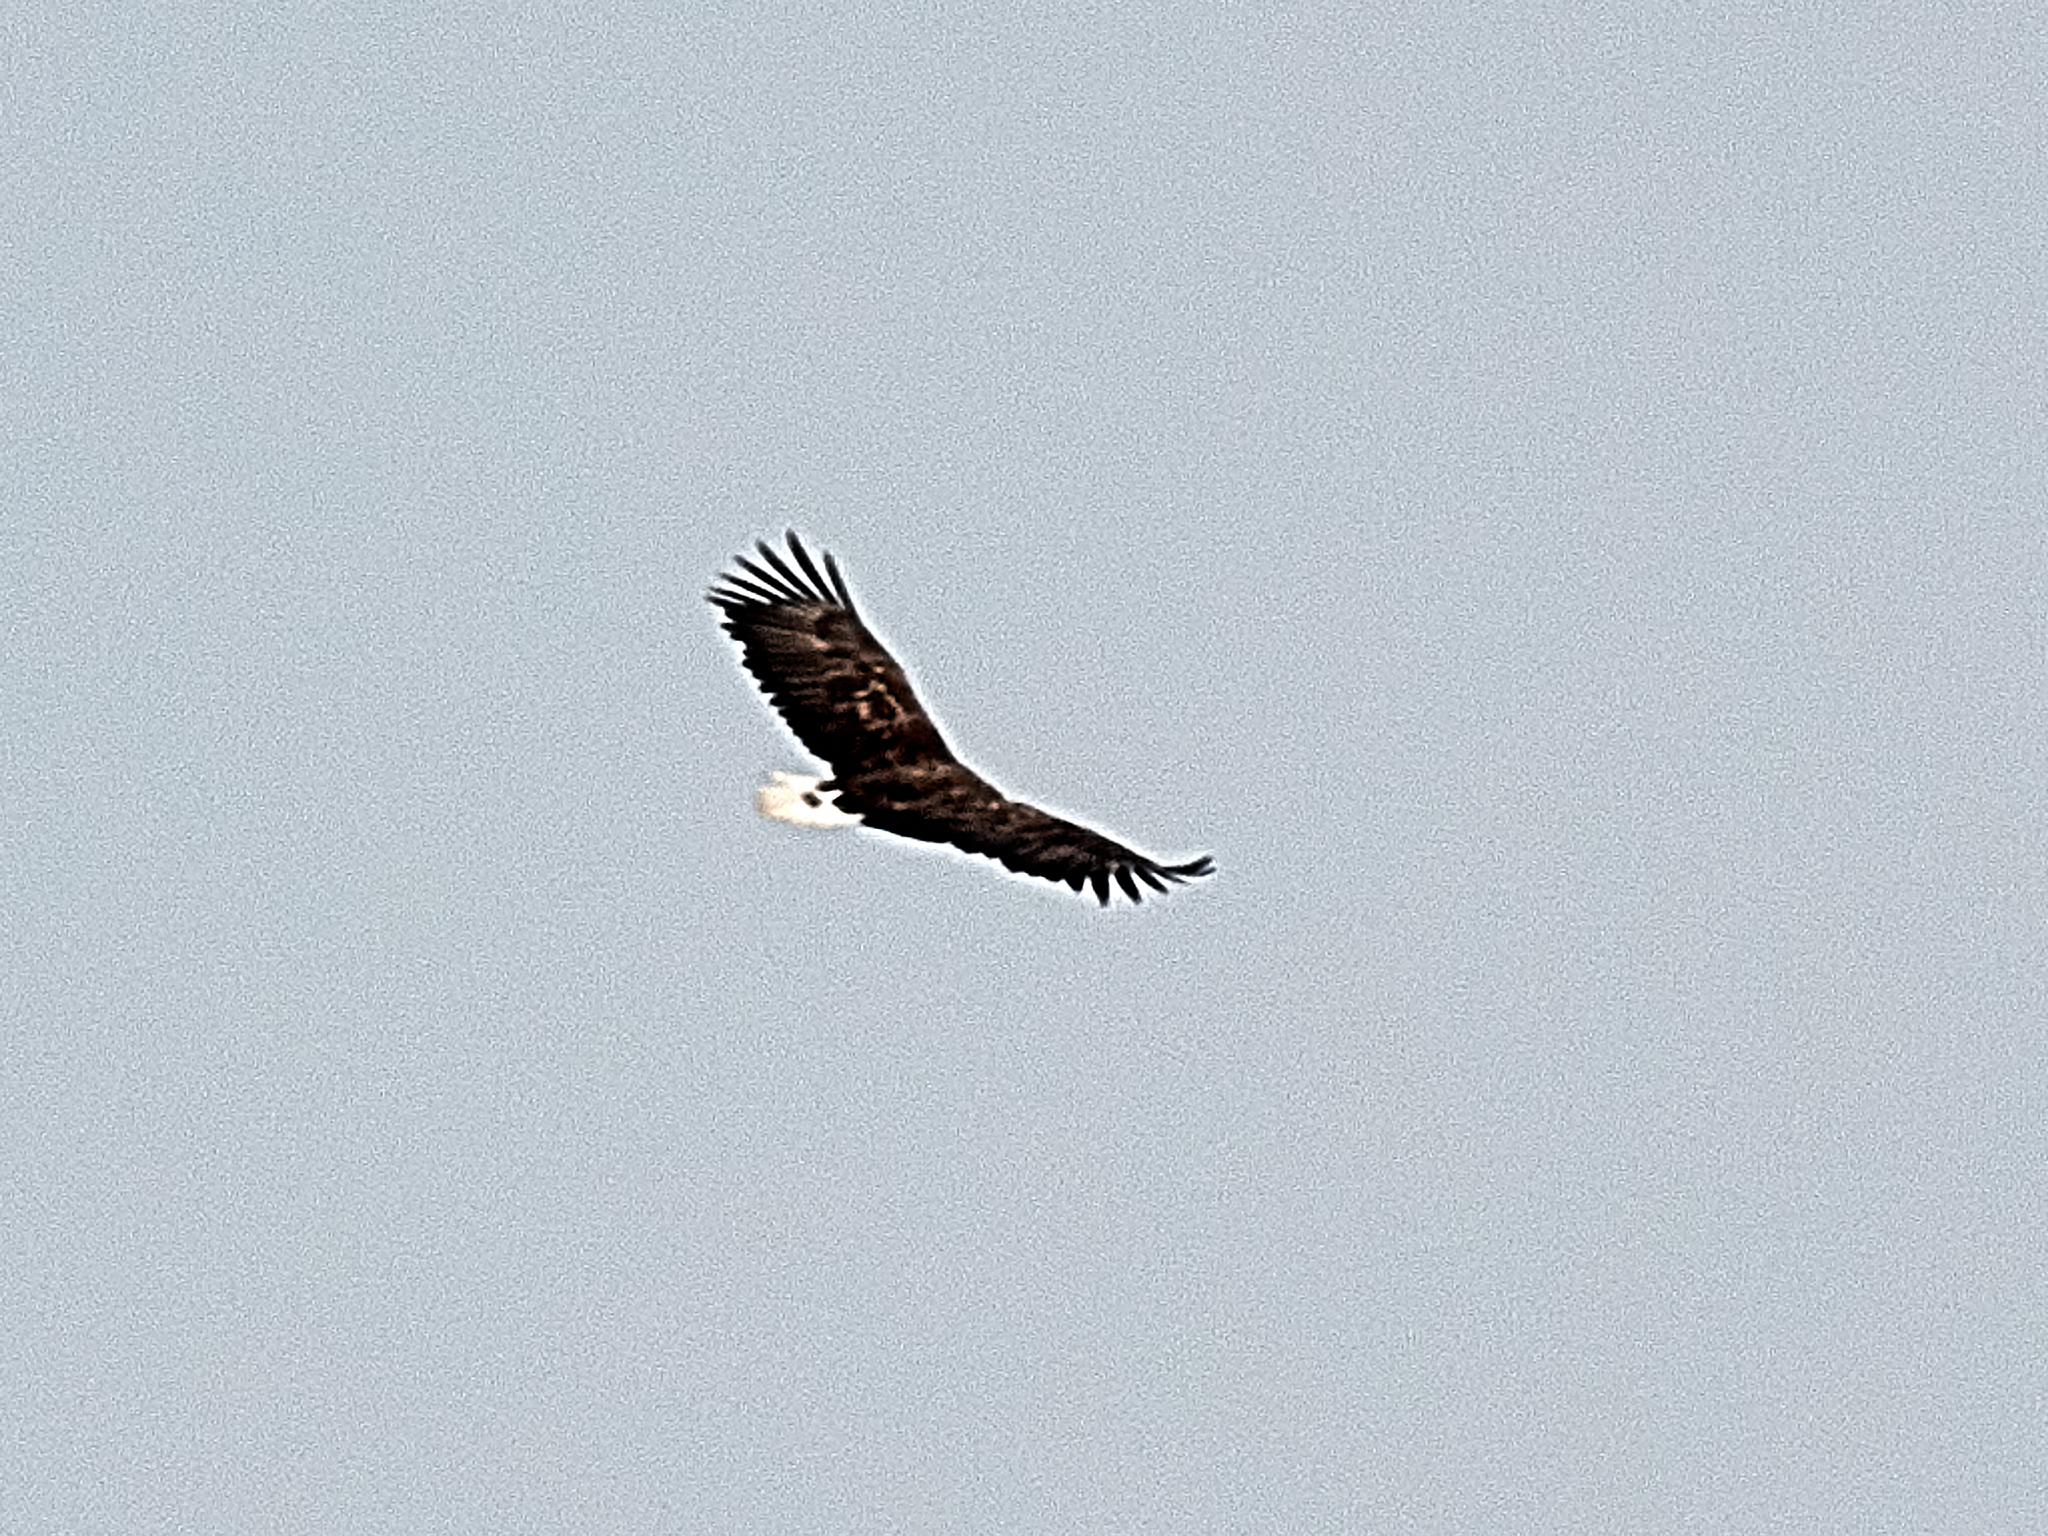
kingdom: Animalia
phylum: Chordata
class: Aves
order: Accipitriformes
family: Accipitridae
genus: Haliaeetus
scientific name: Haliaeetus albicilla
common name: White-tailed eagle
